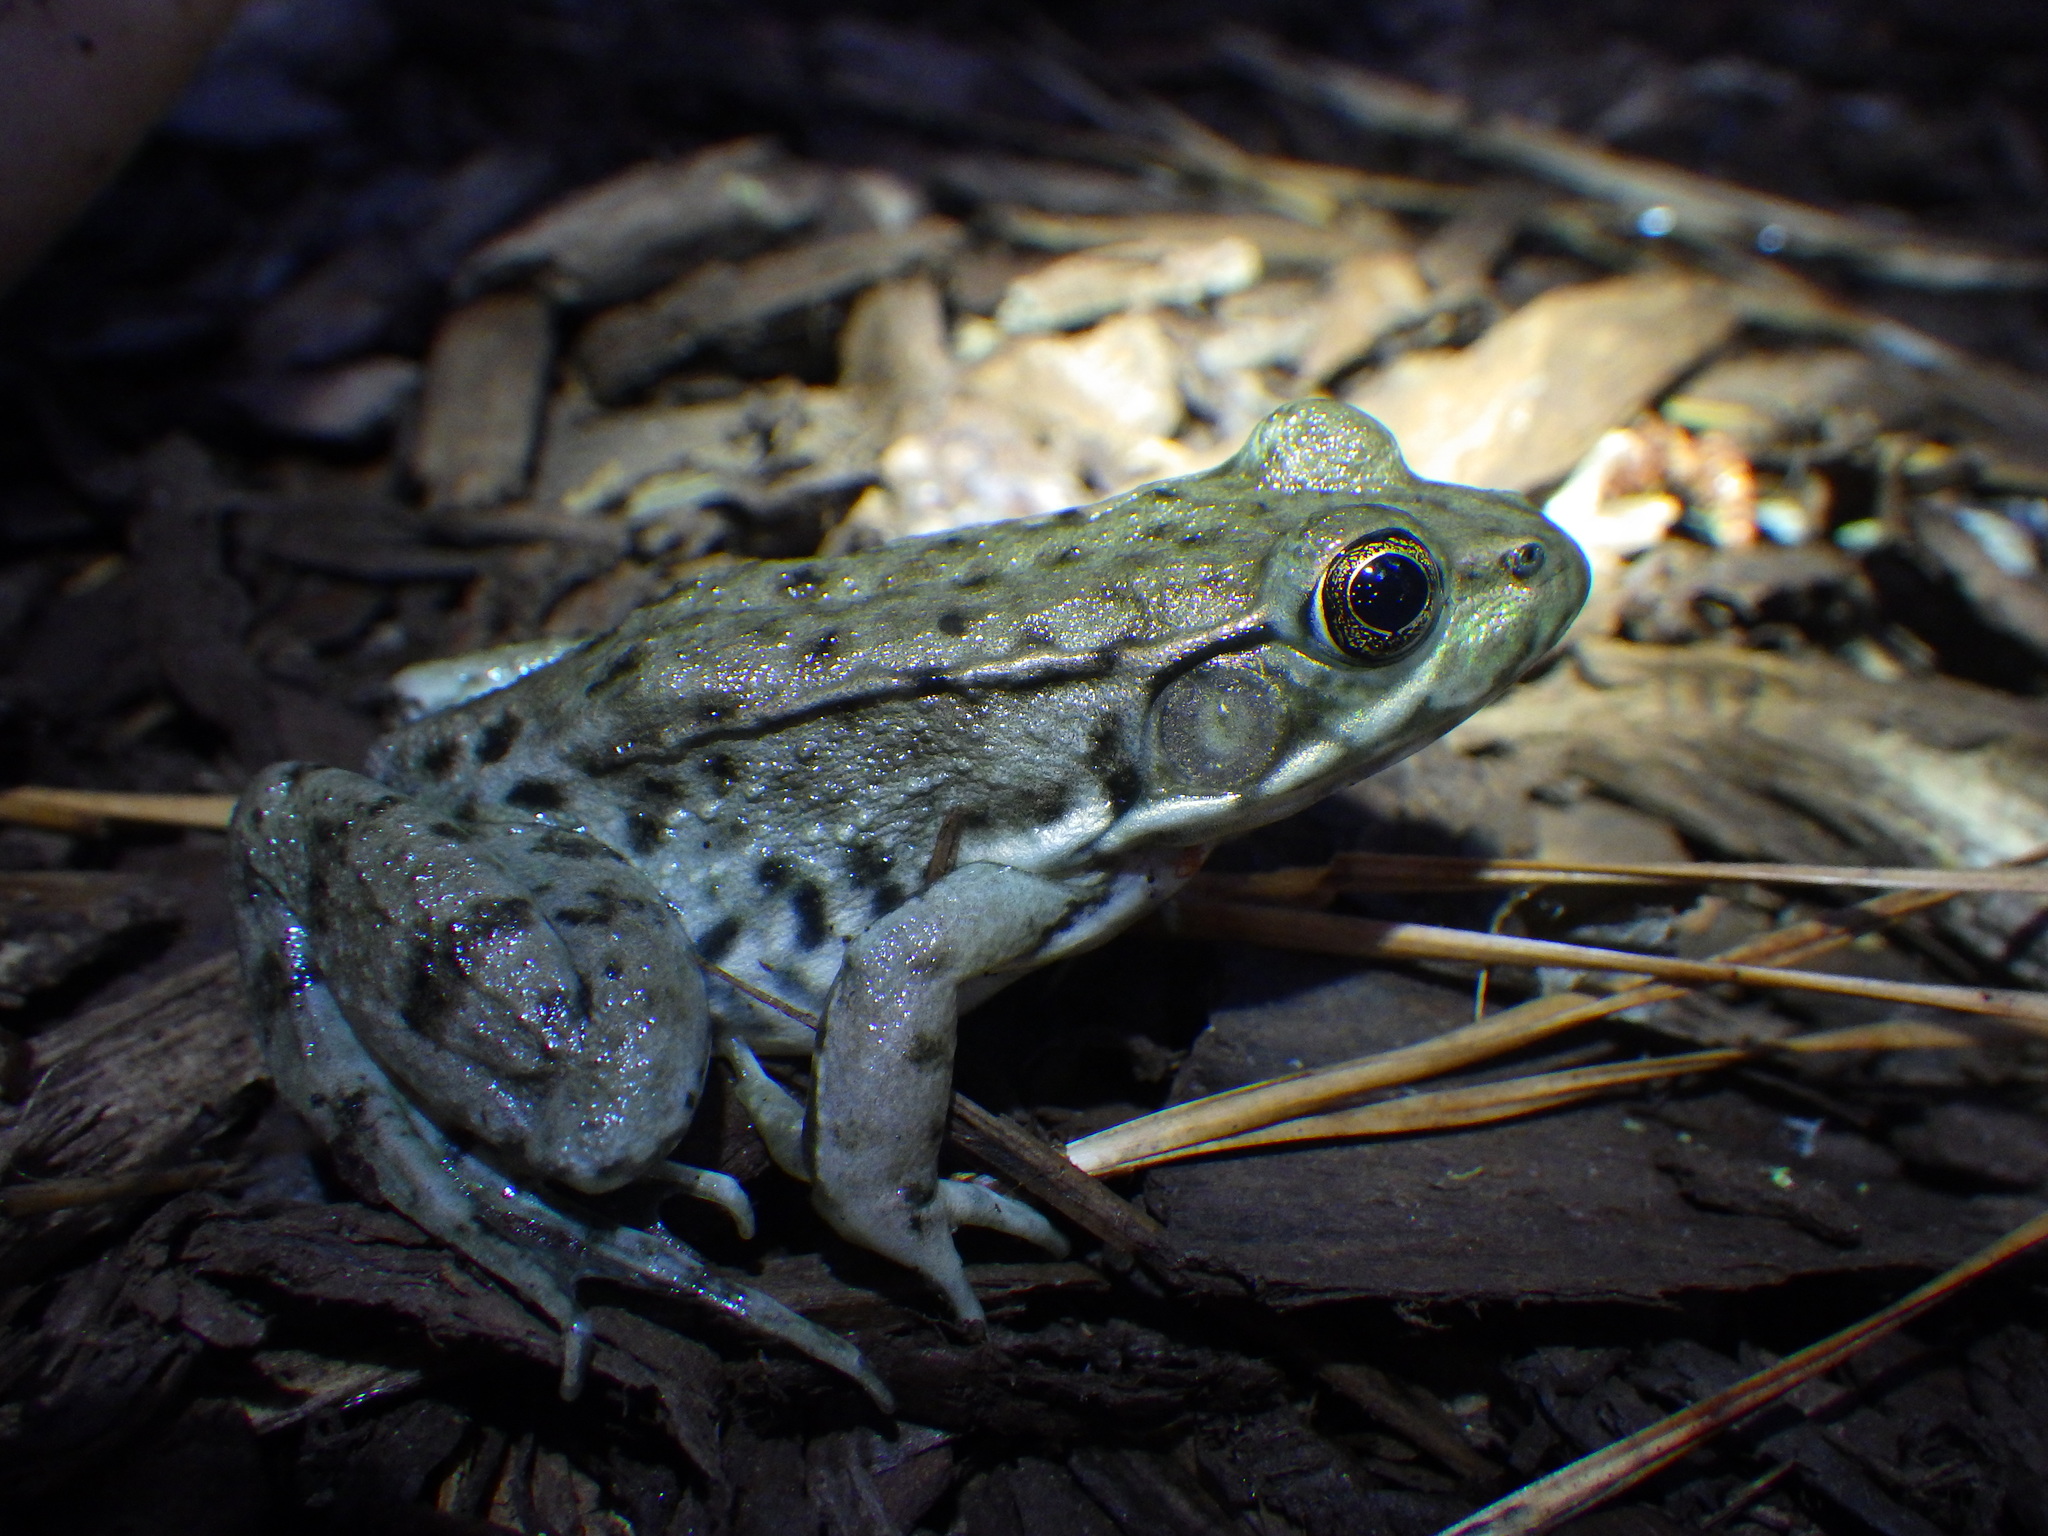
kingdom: Animalia
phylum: Chordata
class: Amphibia
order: Anura
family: Ranidae
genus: Lithobates
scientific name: Lithobates clamitans
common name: Green frog
